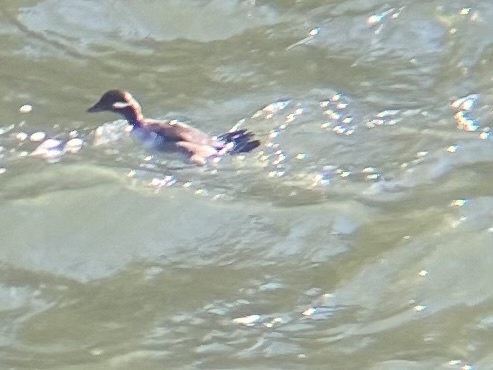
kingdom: Animalia
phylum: Chordata
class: Aves
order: Anseriformes
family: Anatidae
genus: Bucephala
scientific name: Bucephala albeola
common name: Bufflehead
